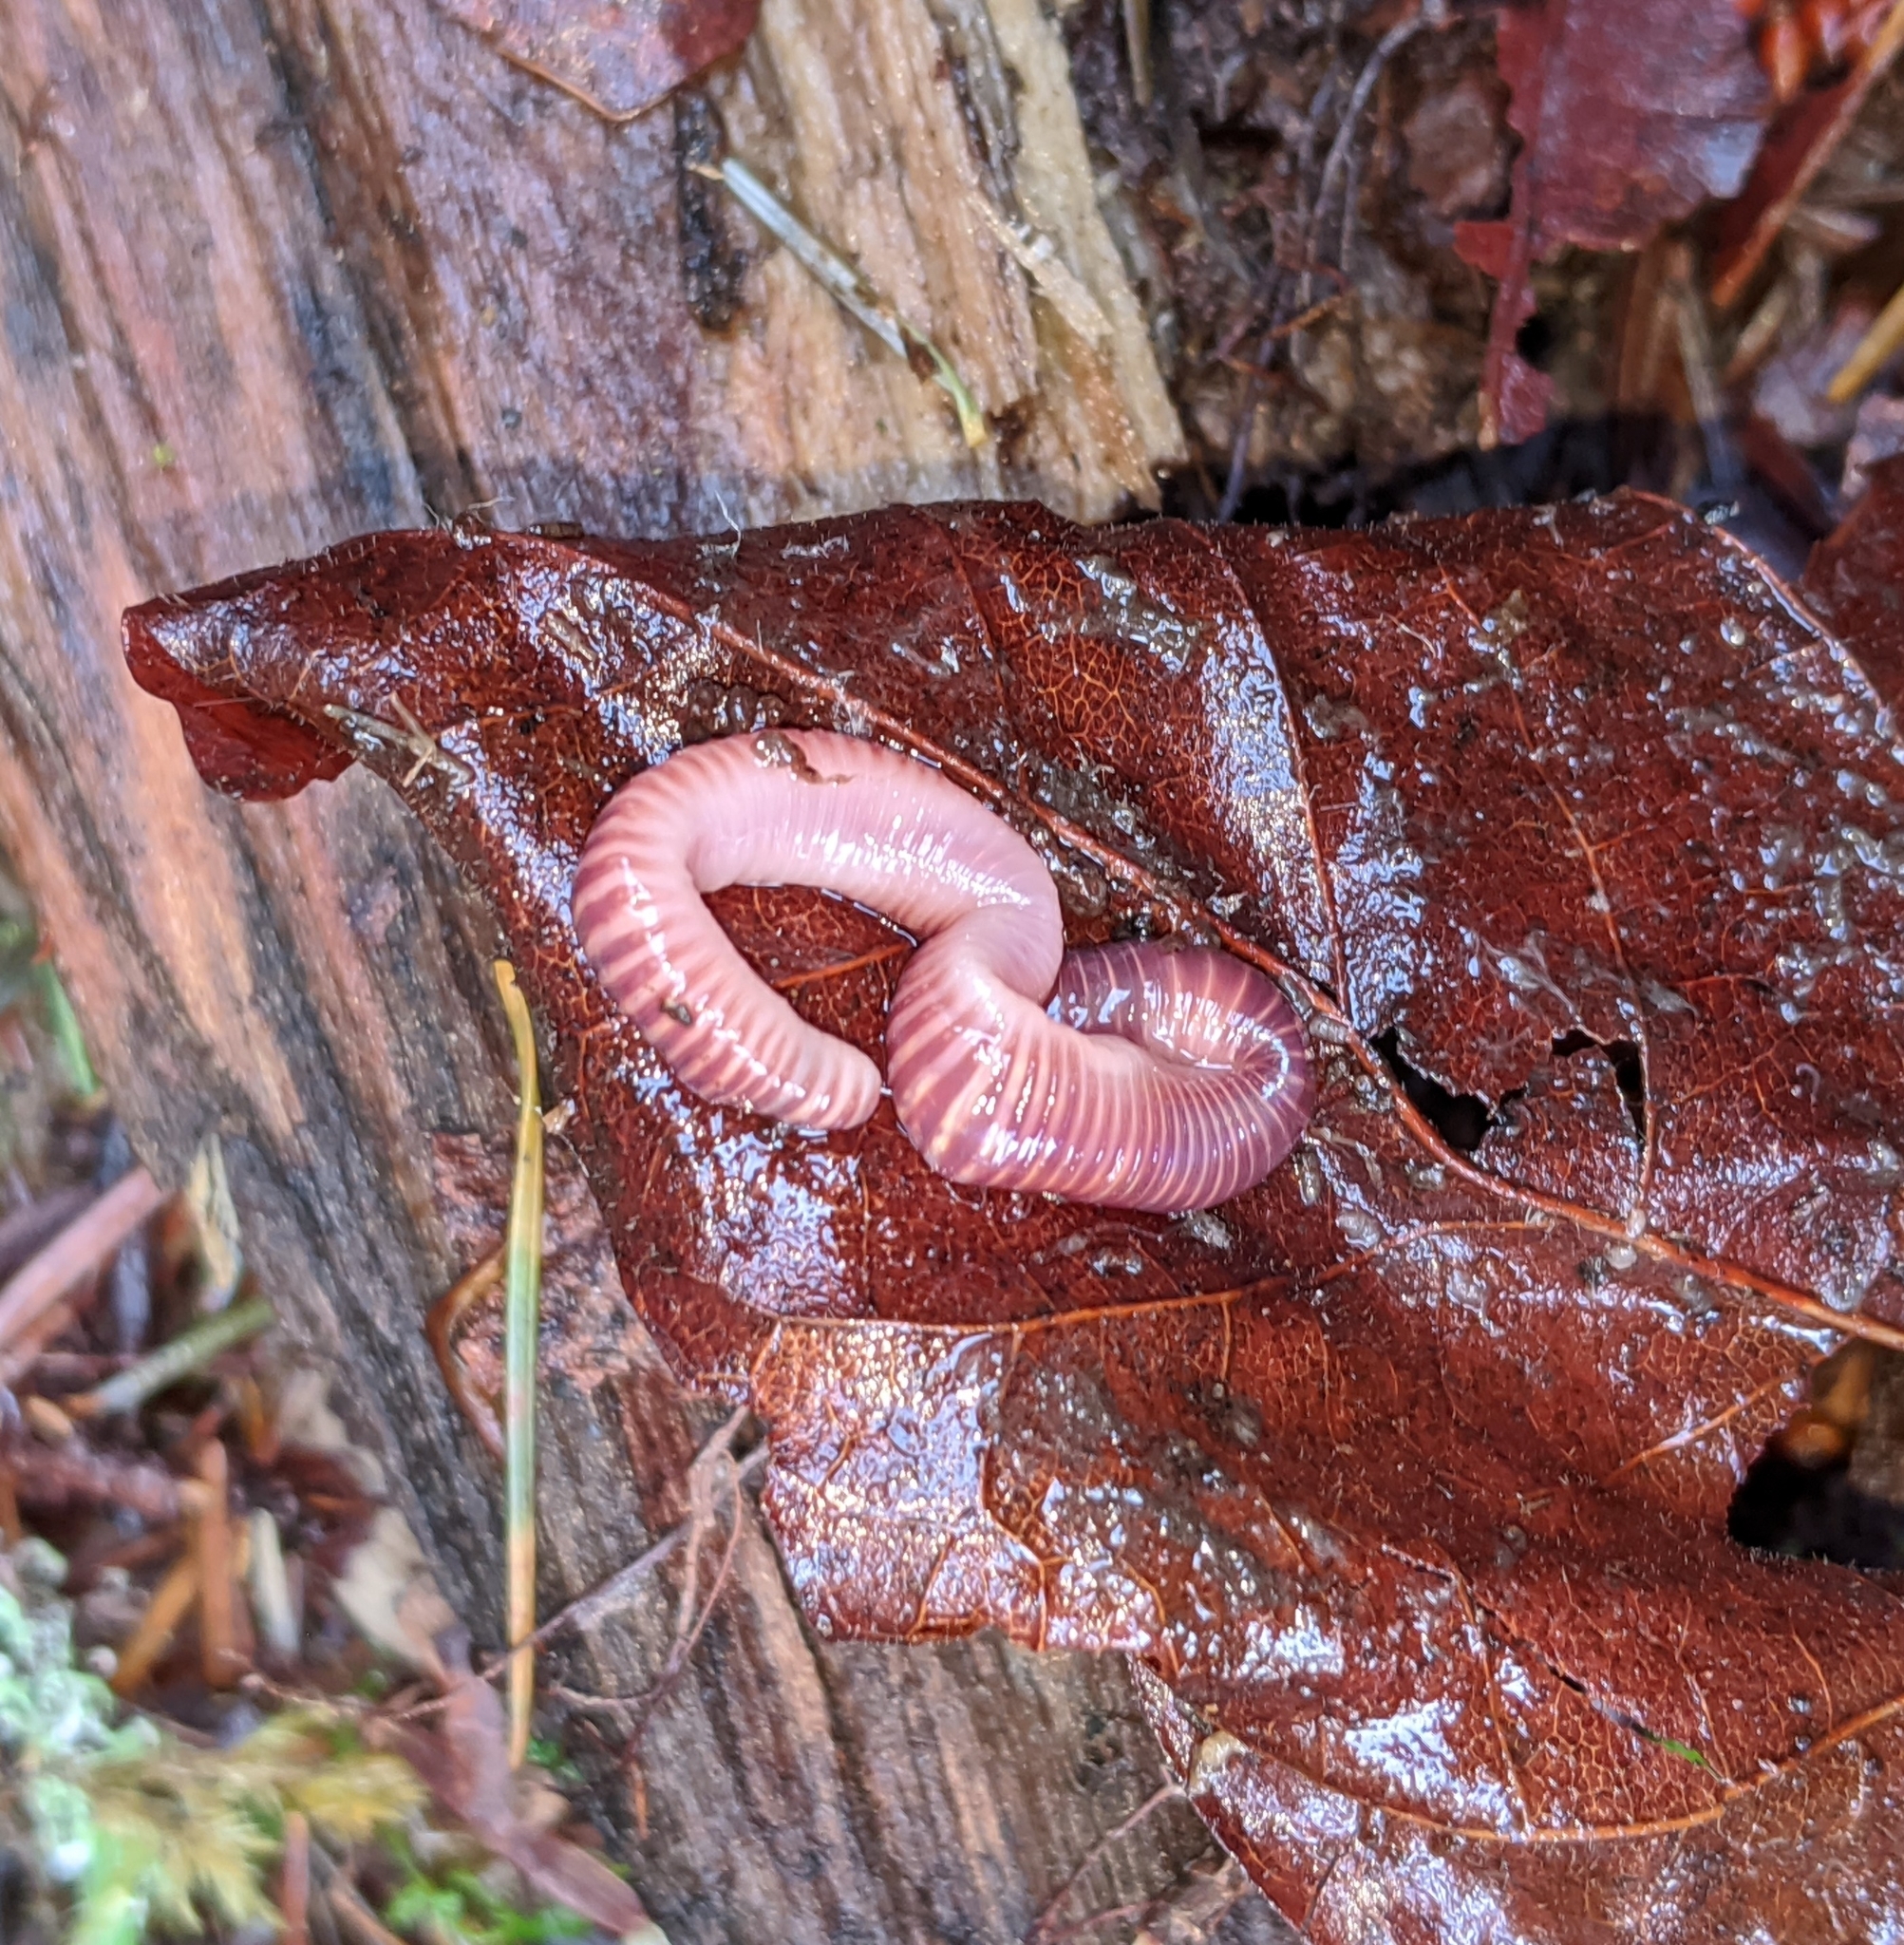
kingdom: Animalia
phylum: Annelida
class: Clitellata
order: Crassiclitellata
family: Lumbricidae
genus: Eisenia
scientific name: Eisenia fetida
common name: Red wiggler
